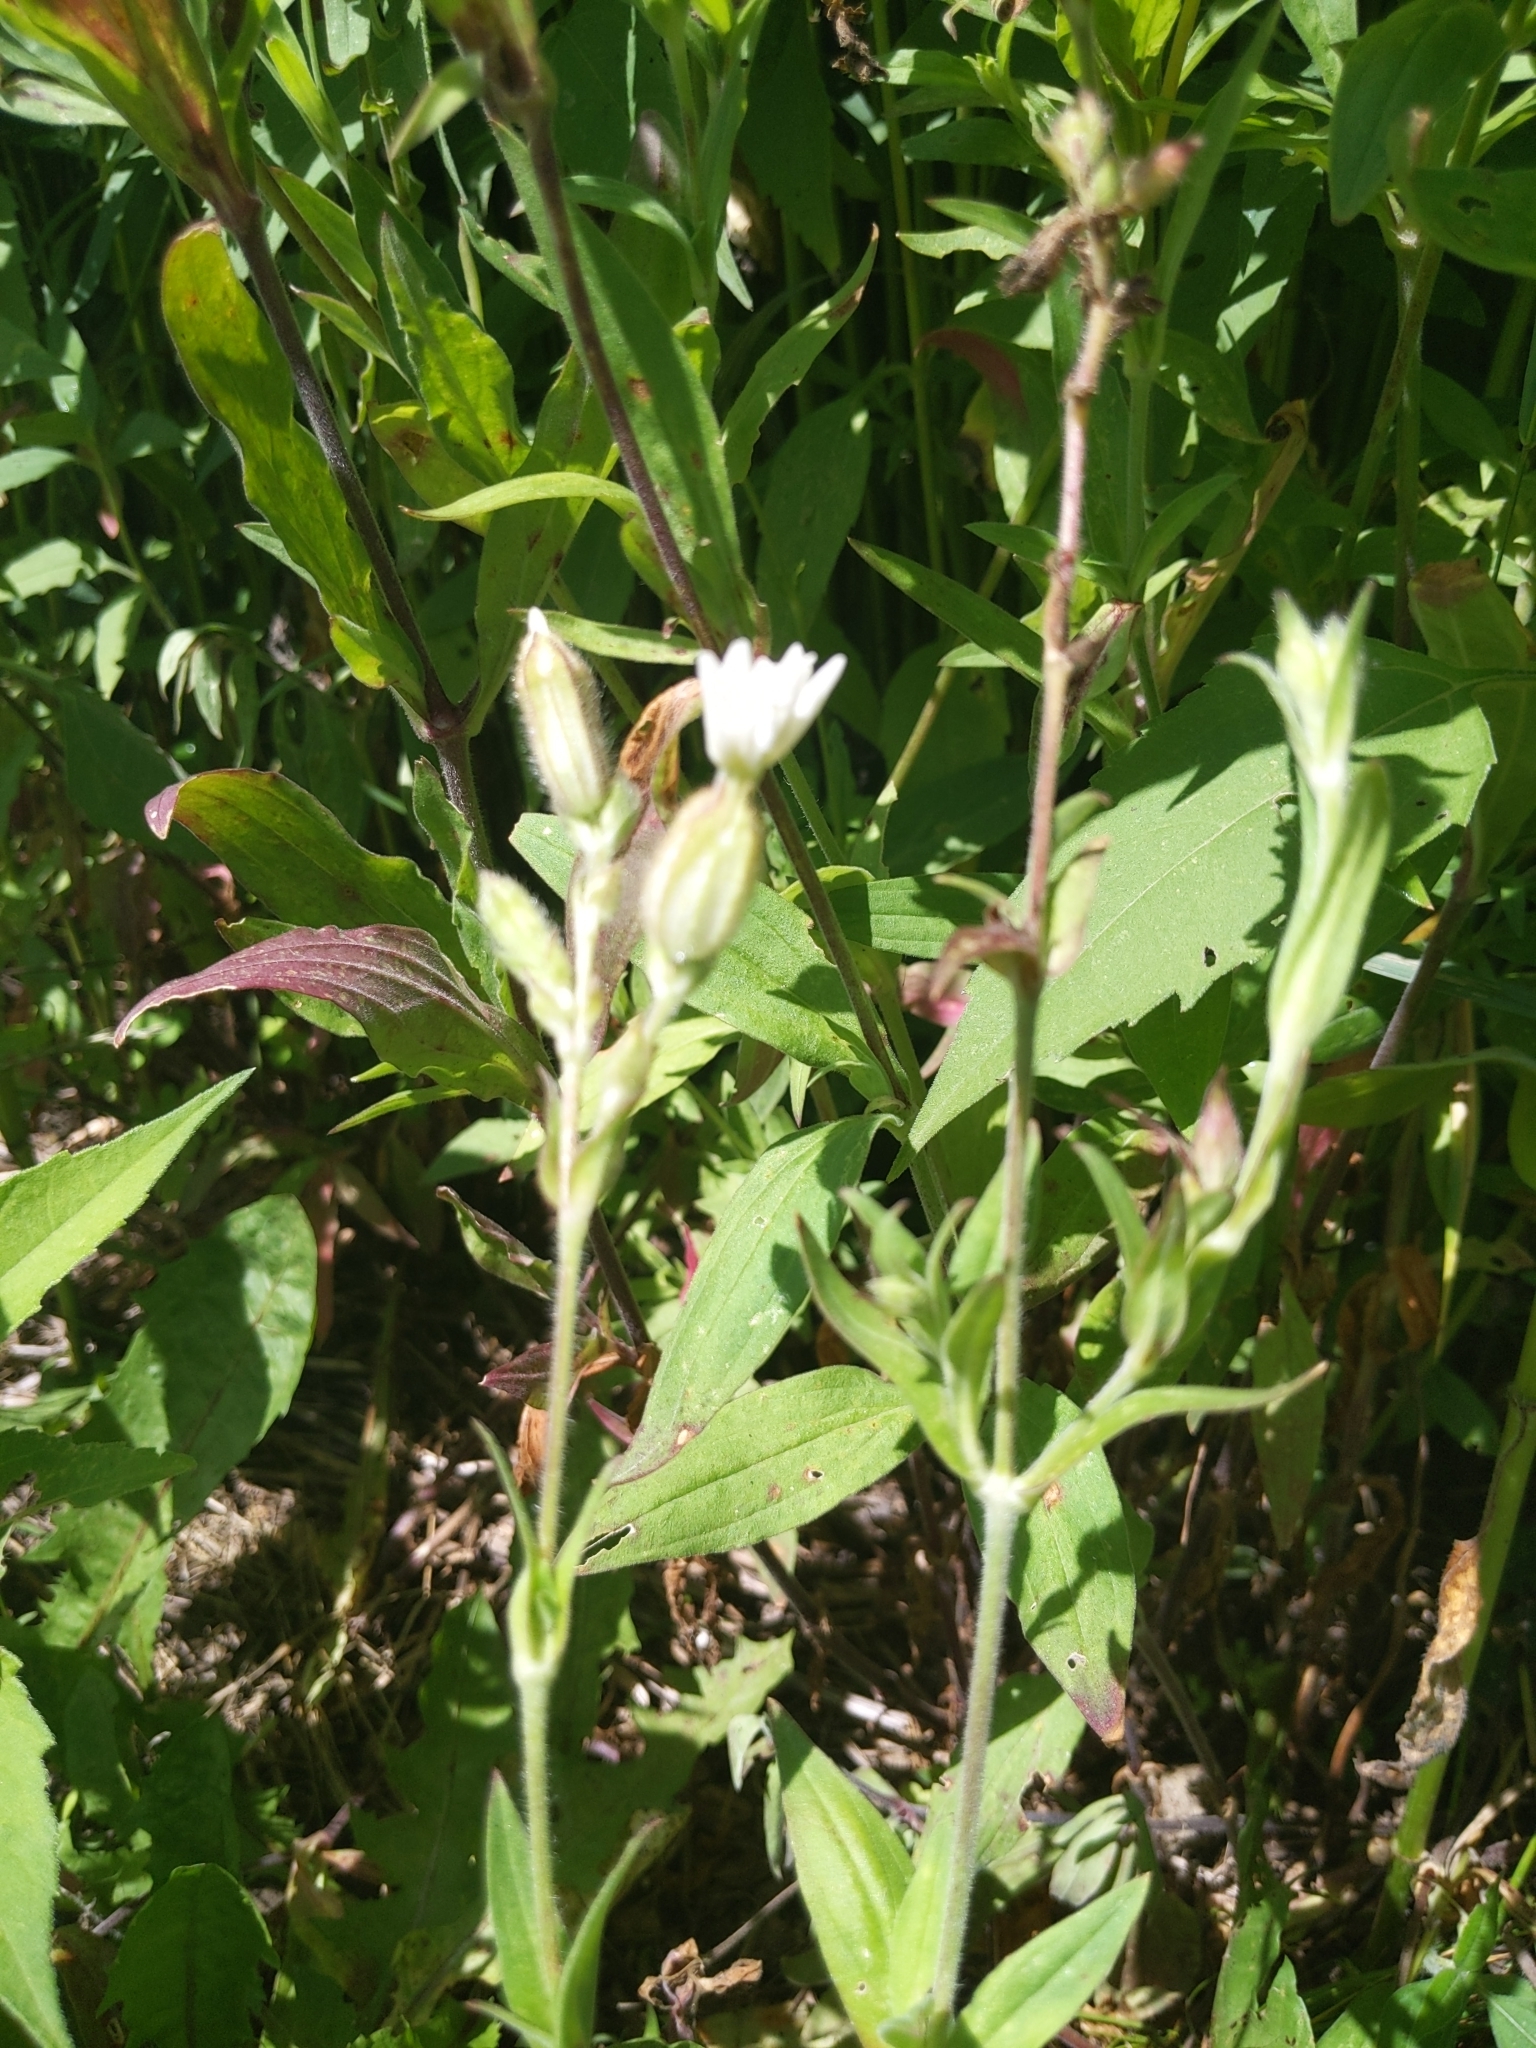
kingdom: Plantae
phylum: Tracheophyta
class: Magnoliopsida
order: Caryophyllales
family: Caryophyllaceae
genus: Silene
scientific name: Silene latifolia
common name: White campion
